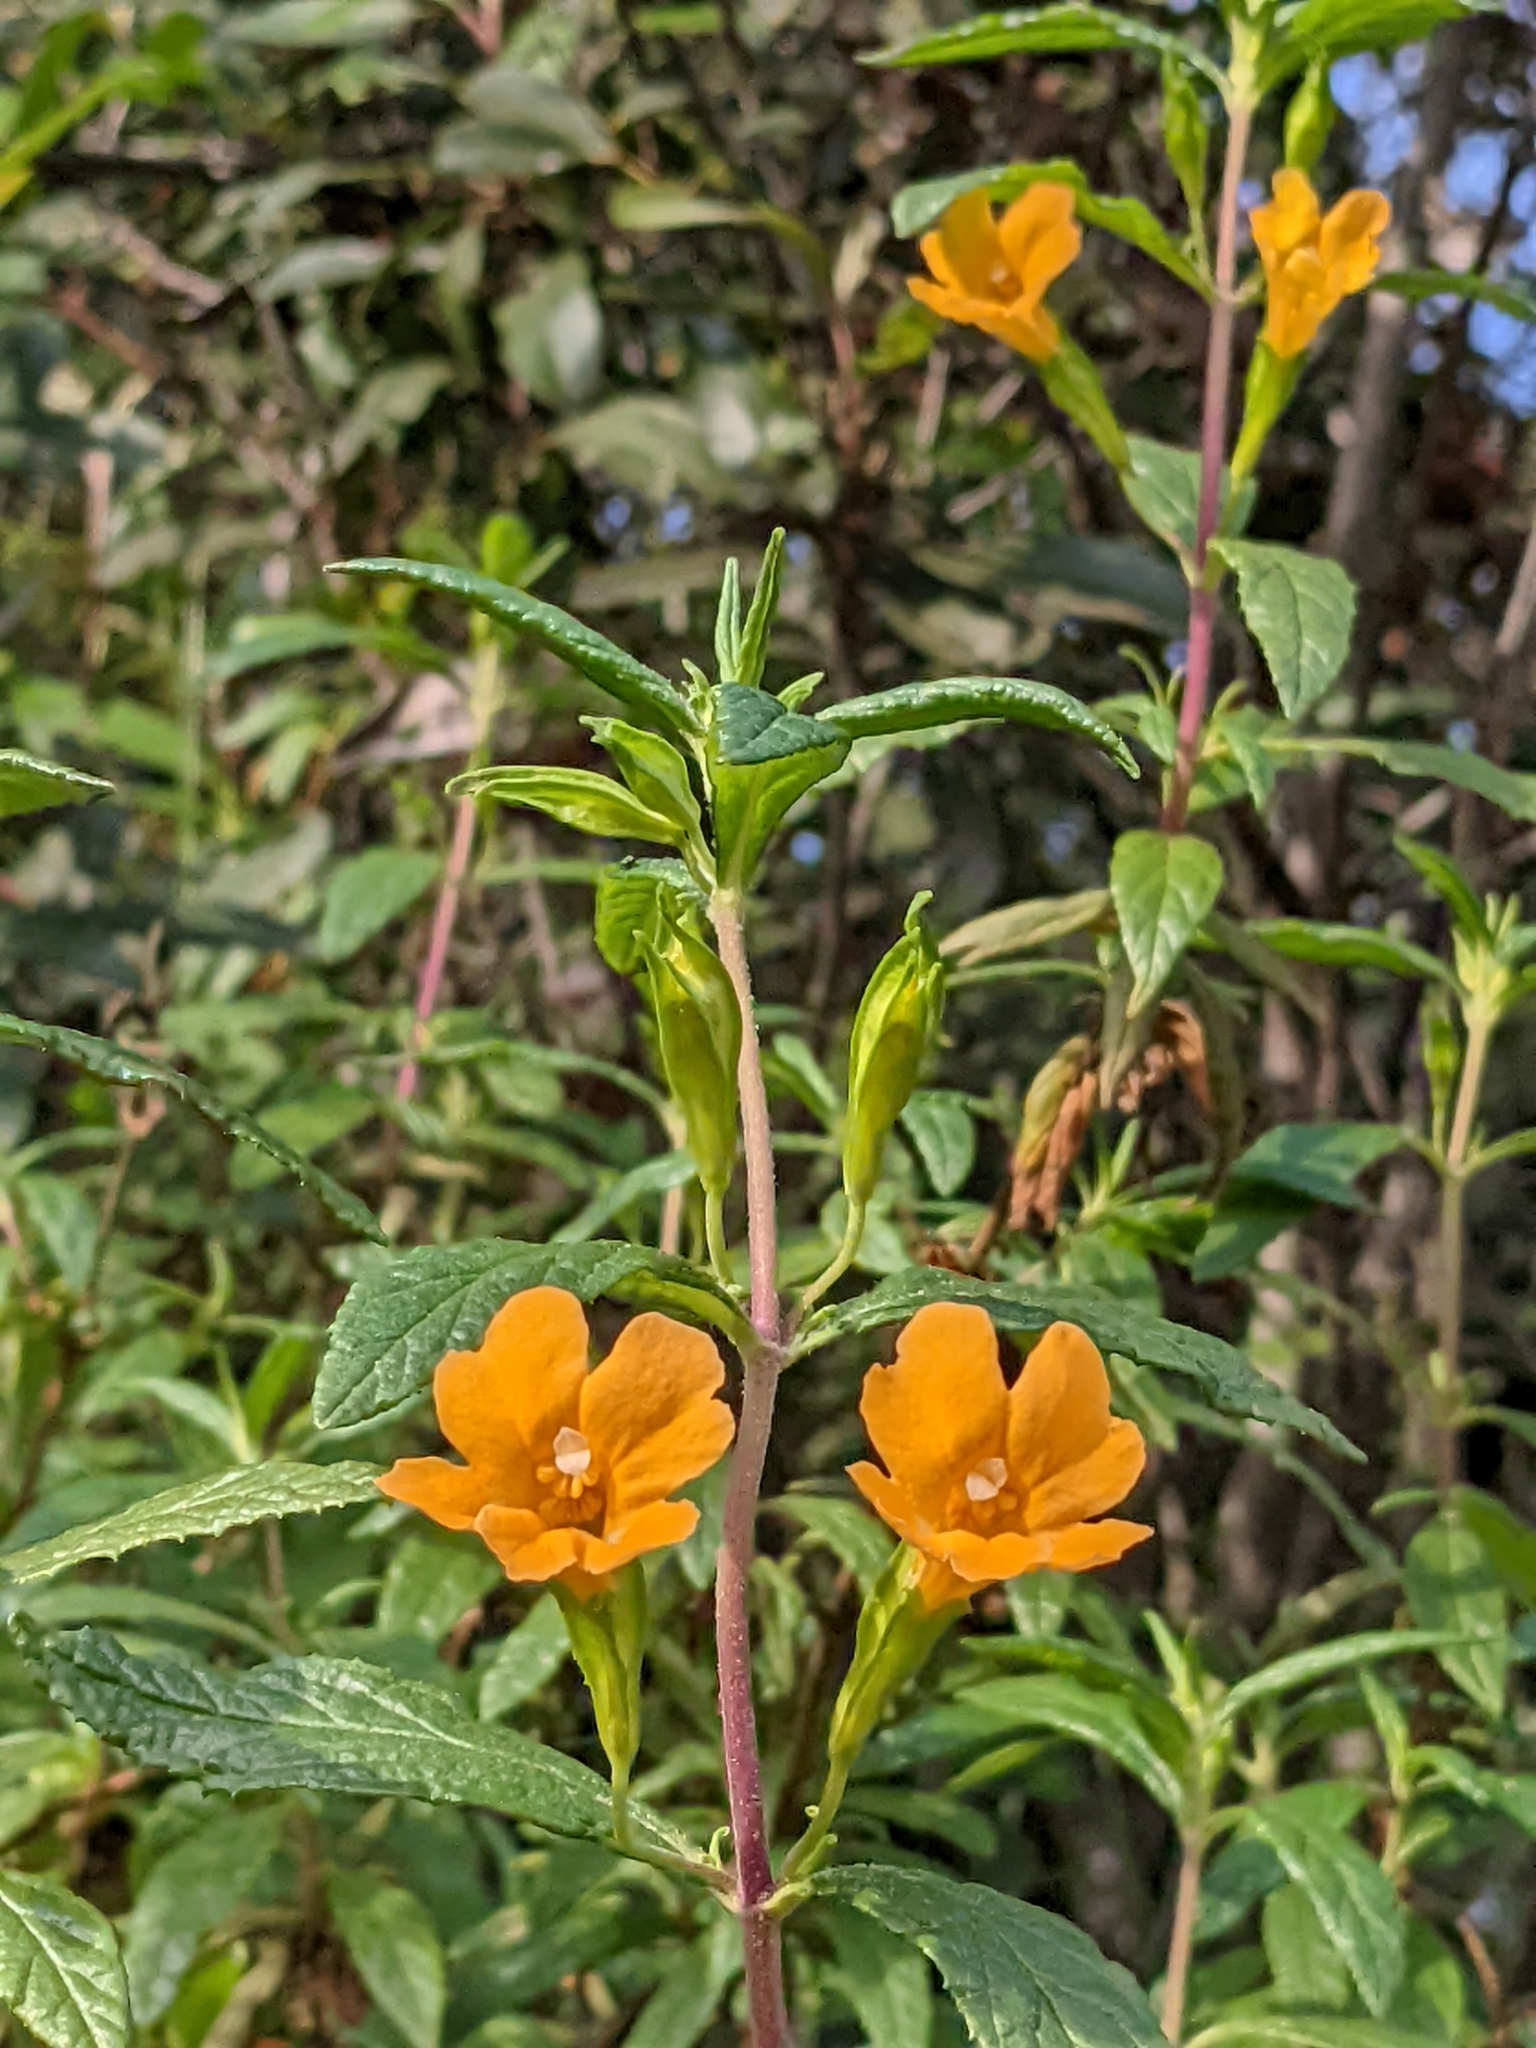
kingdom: Plantae
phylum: Tracheophyta
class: Magnoliopsida
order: Lamiales
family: Phrymaceae
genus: Diplacus
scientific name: Diplacus aurantiacus
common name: Bush monkey-flower
